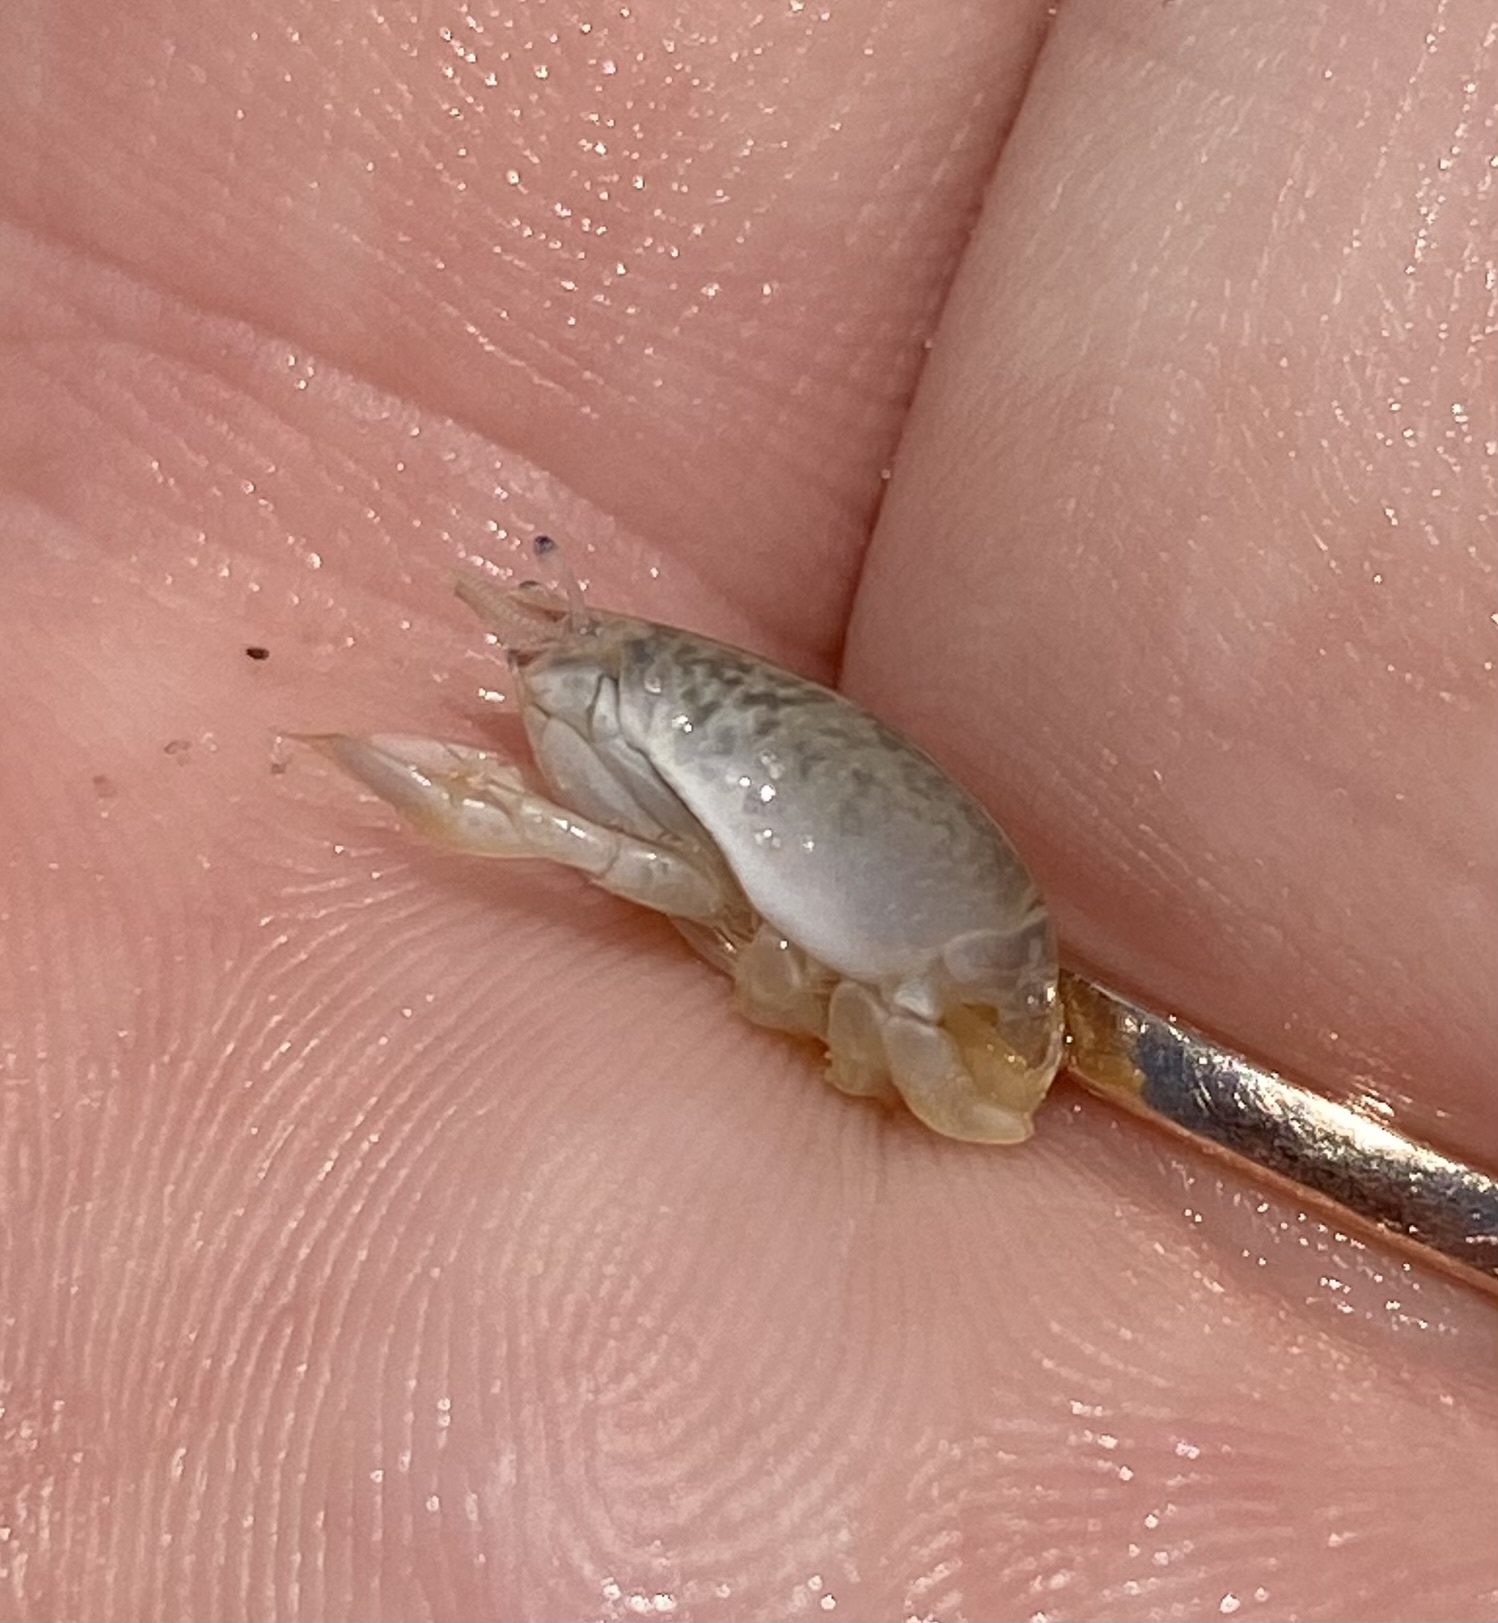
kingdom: Animalia
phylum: Arthropoda
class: Malacostraca
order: Decapoda
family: Hippidae
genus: Emerita
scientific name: Emerita talpoida
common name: Atlantic sand crab
